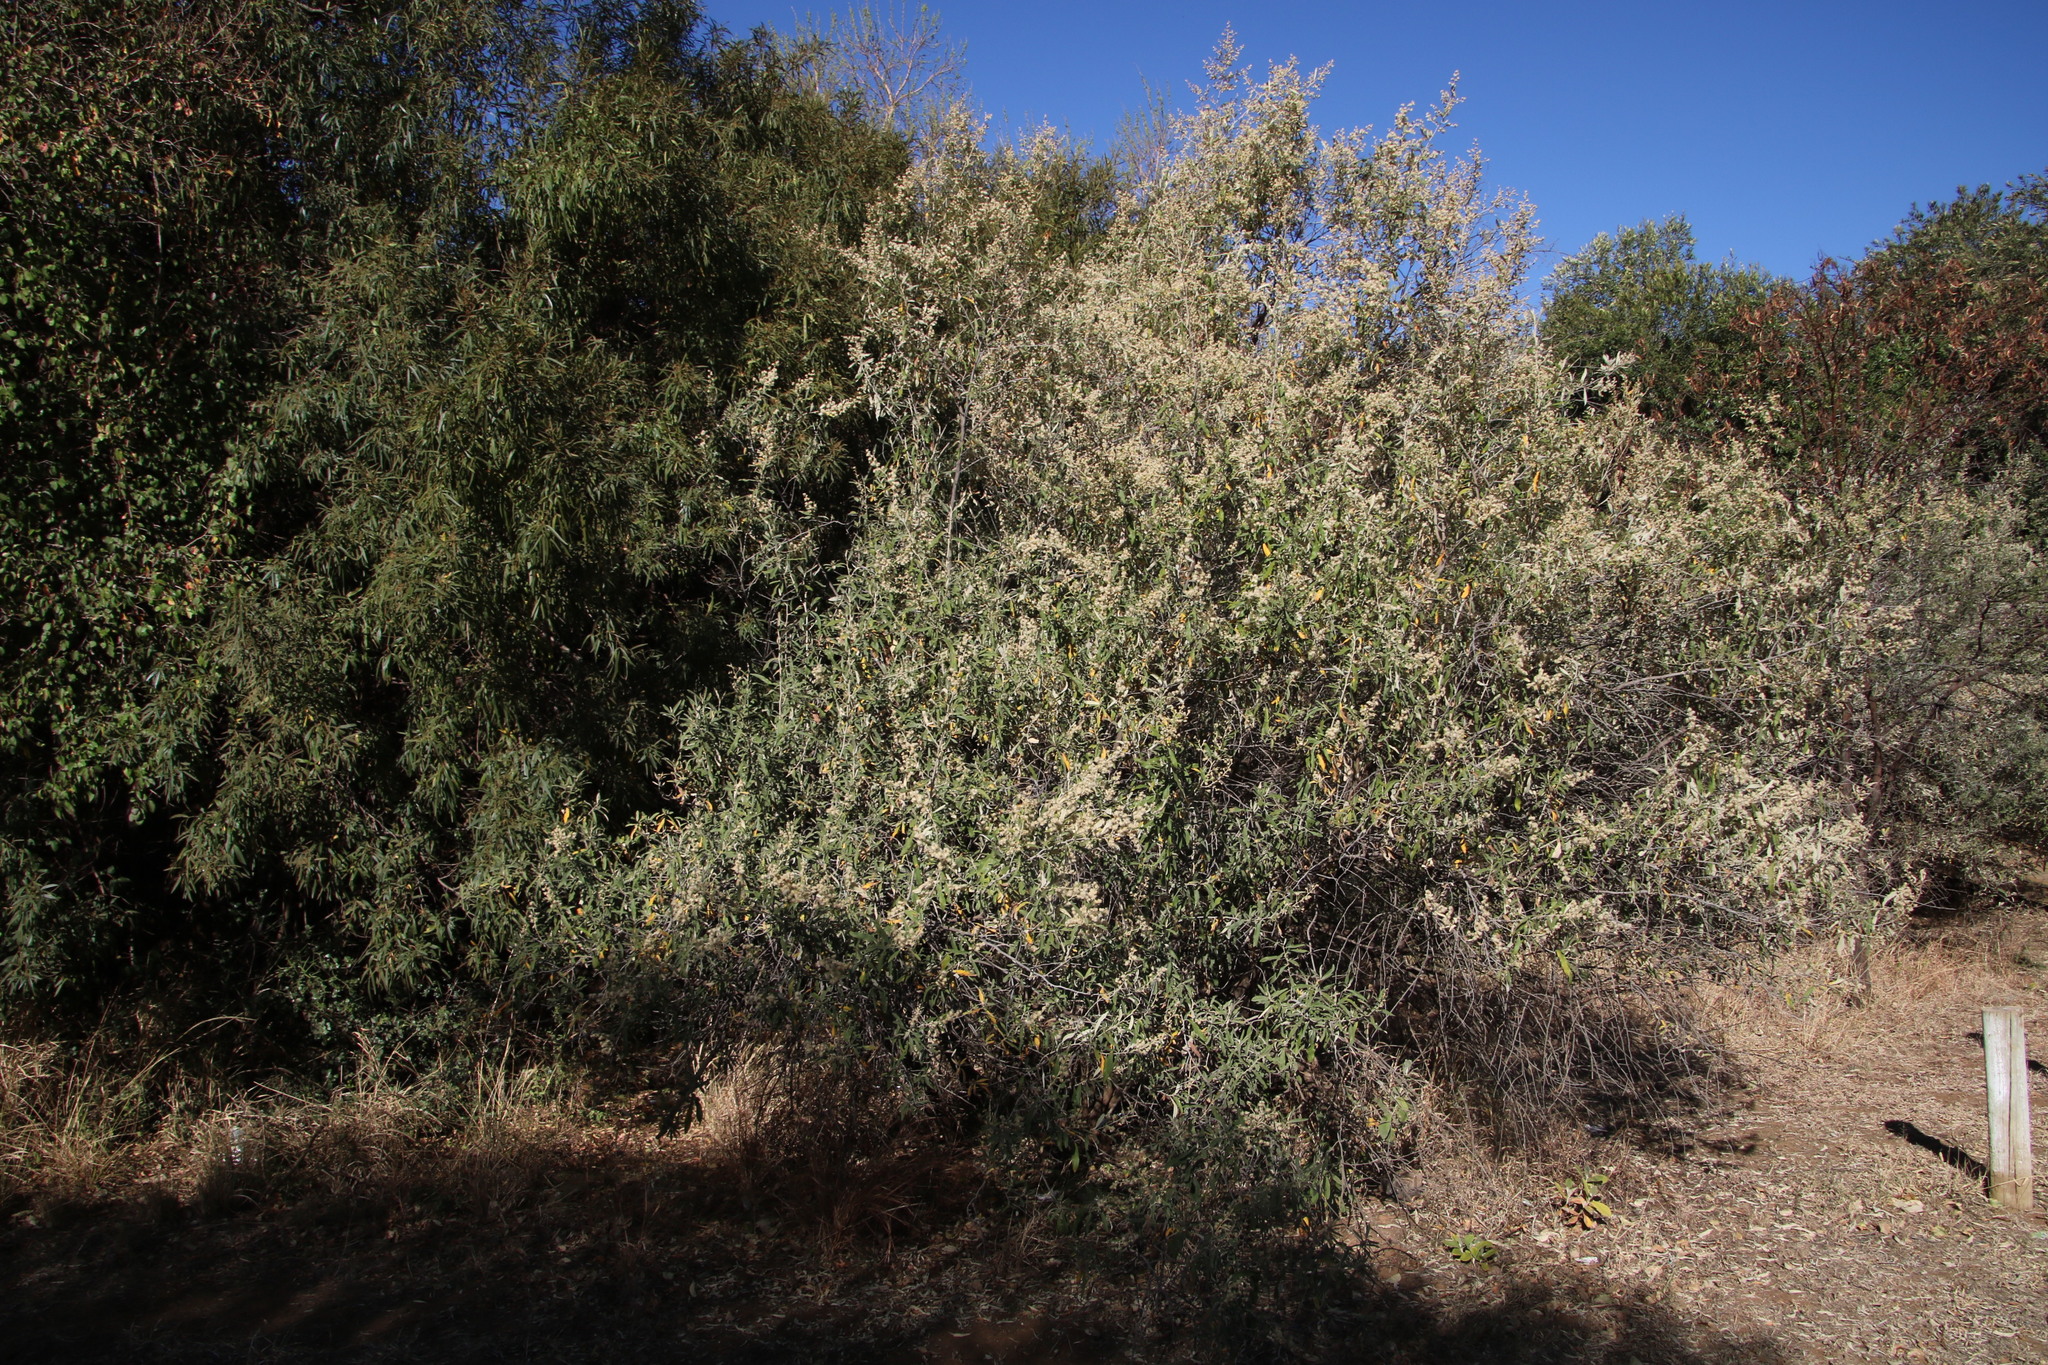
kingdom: Plantae
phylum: Tracheophyta
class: Magnoliopsida
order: Asterales
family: Asteraceae
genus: Tarchonanthus
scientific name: Tarchonanthus camphoratus
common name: Camphorwood
